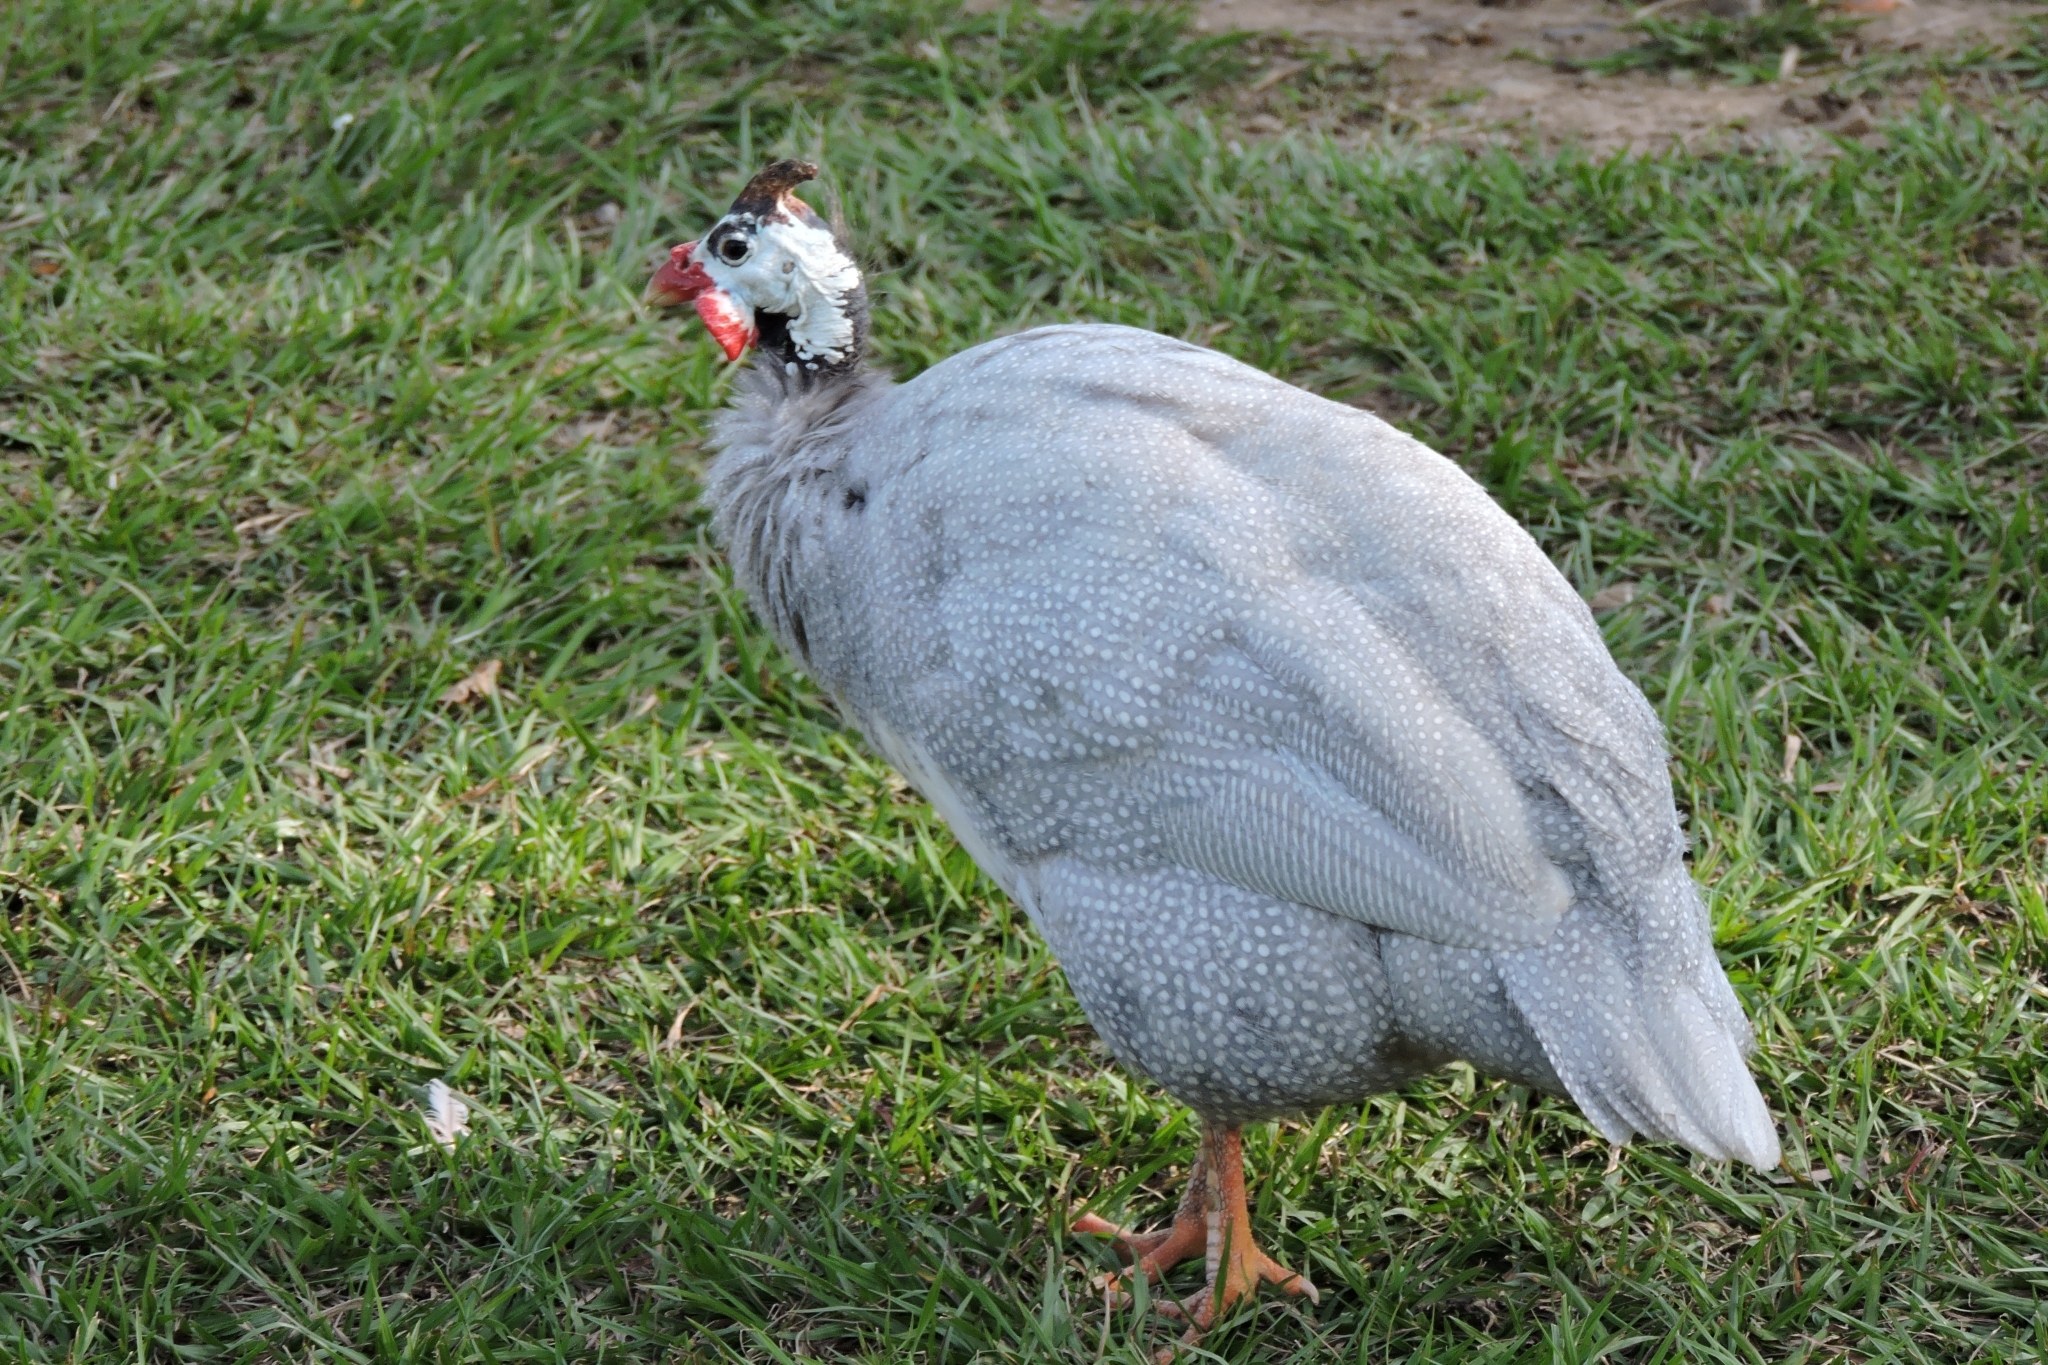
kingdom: Animalia
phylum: Chordata
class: Aves
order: Galliformes
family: Numididae
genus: Numida
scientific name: Numida meleagris
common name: Helmeted guineafowl
